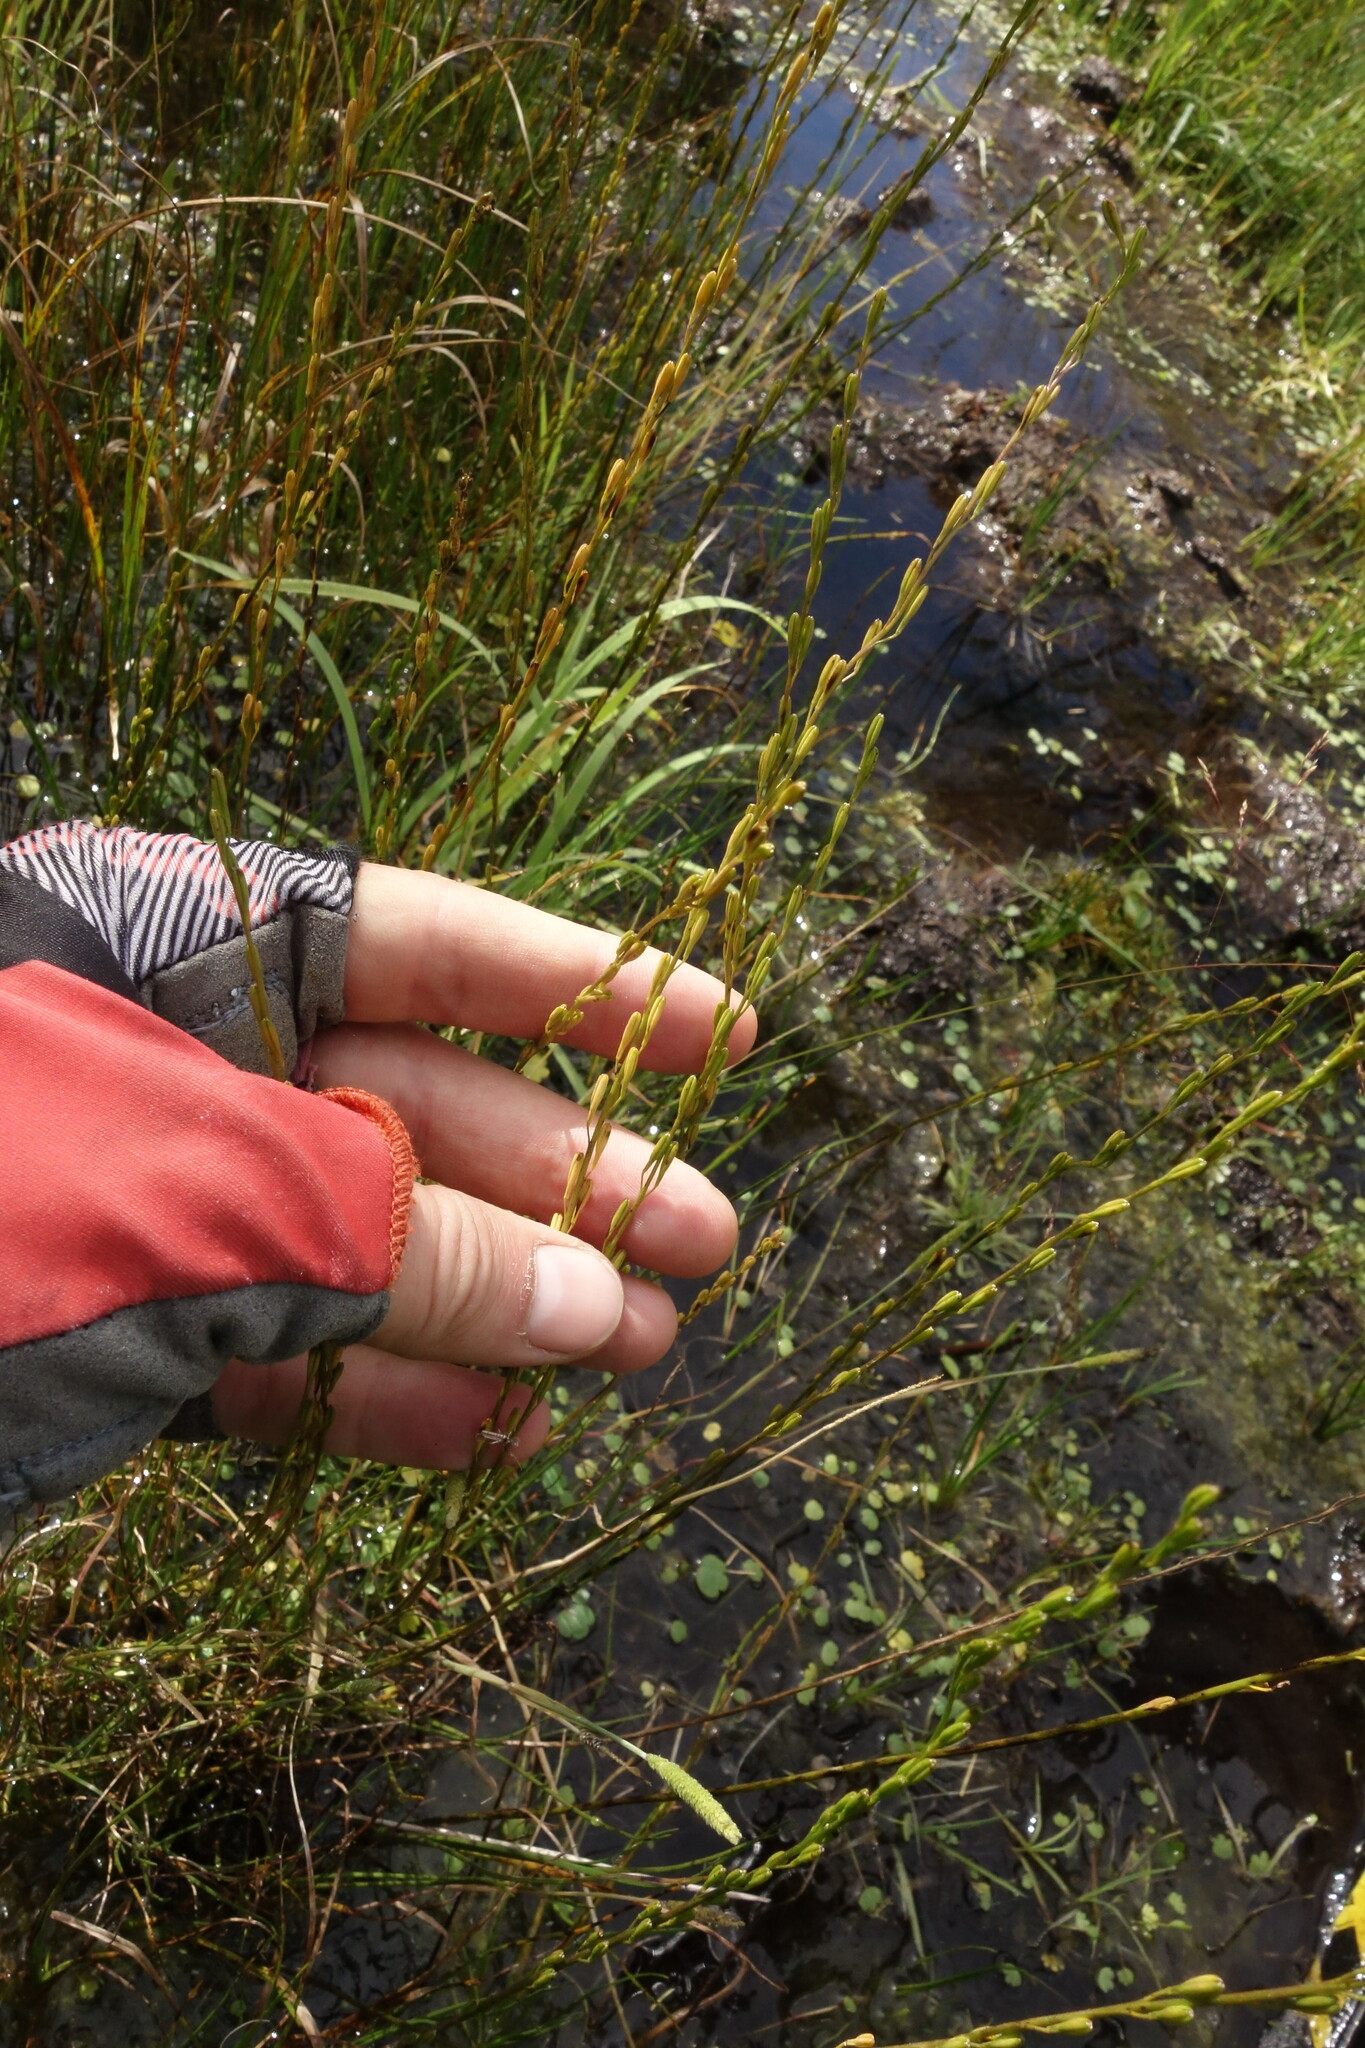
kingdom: Plantae
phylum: Tracheophyta
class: Liliopsida
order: Alismatales
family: Juncaginaceae
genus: Triglochin
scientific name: Triglochin palustris
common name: Marsh arrowgrass
